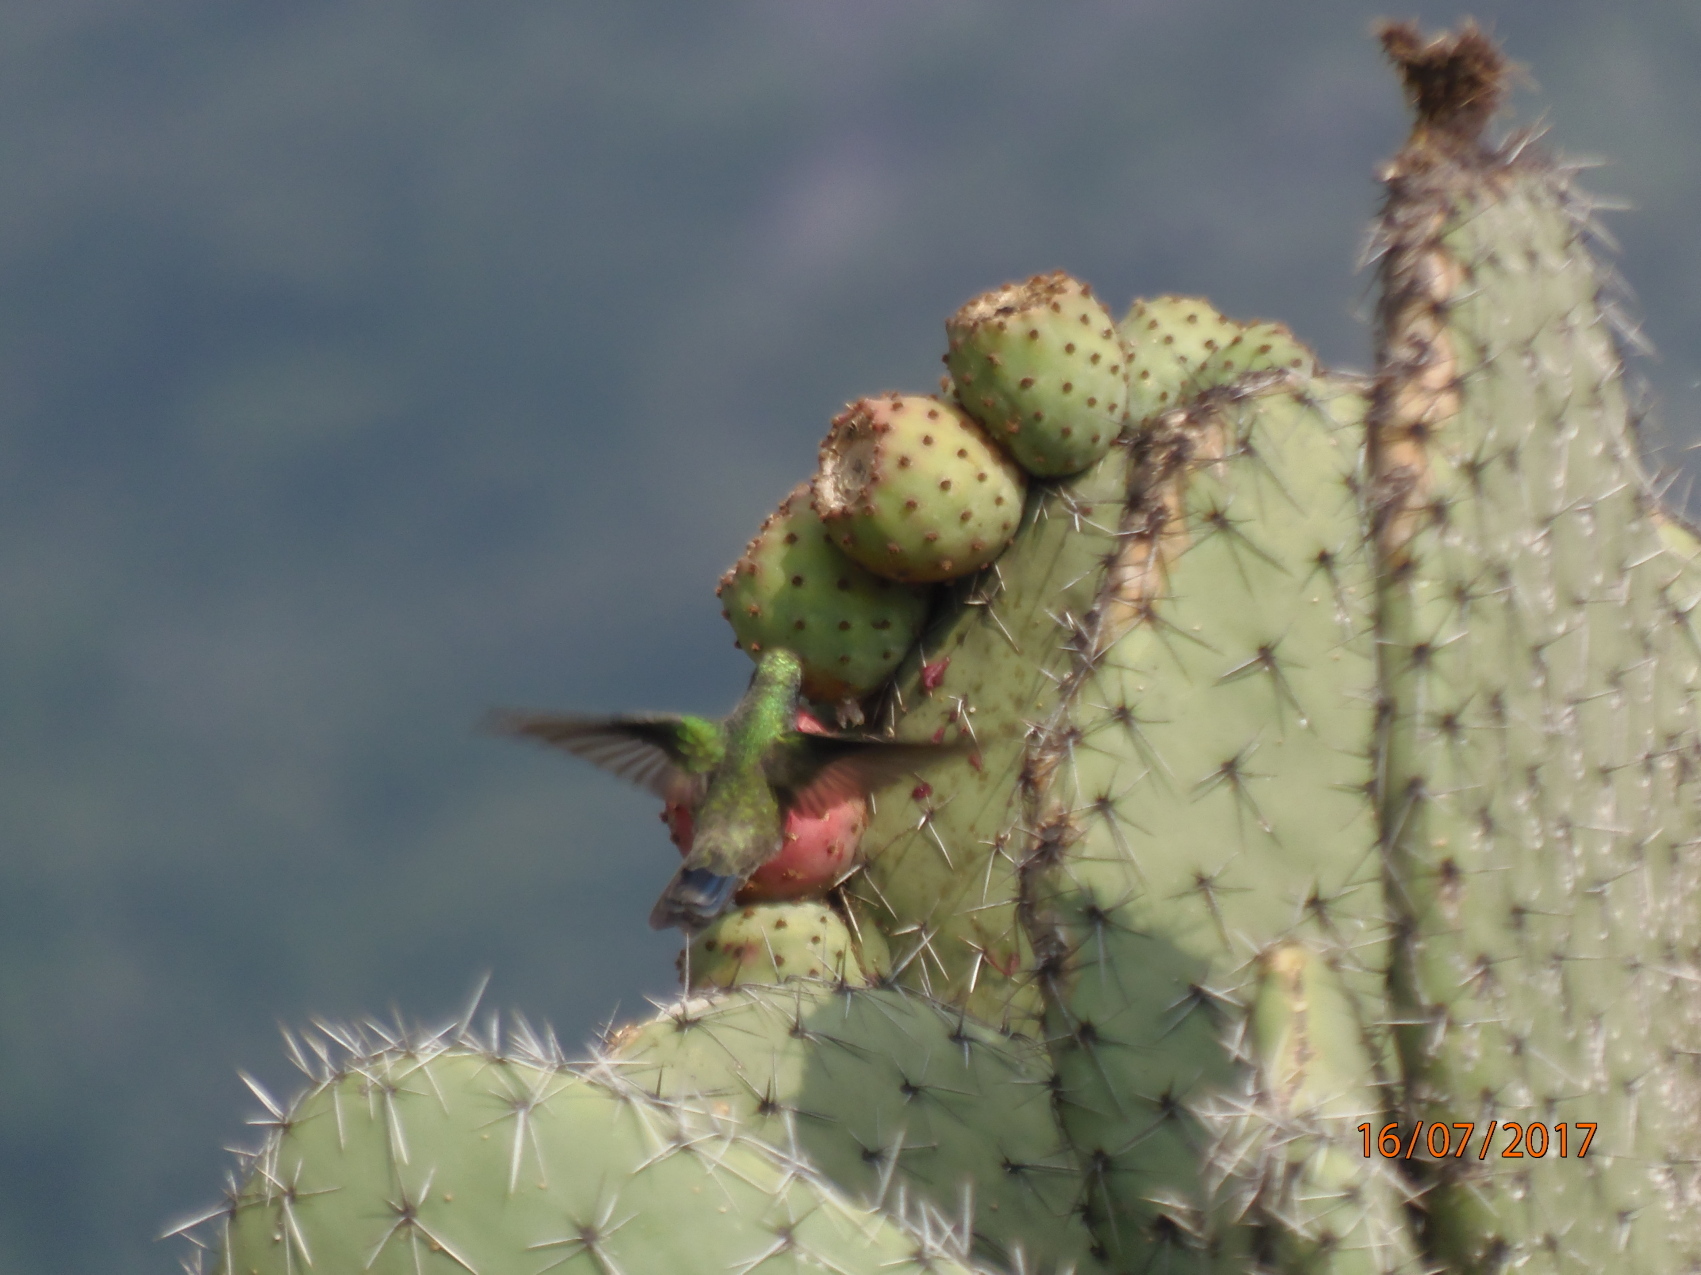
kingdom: Animalia
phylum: Chordata
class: Aves
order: Apodiformes
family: Trochilidae
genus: Cynanthus
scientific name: Cynanthus latirostris
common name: Broad-billed hummingbird
